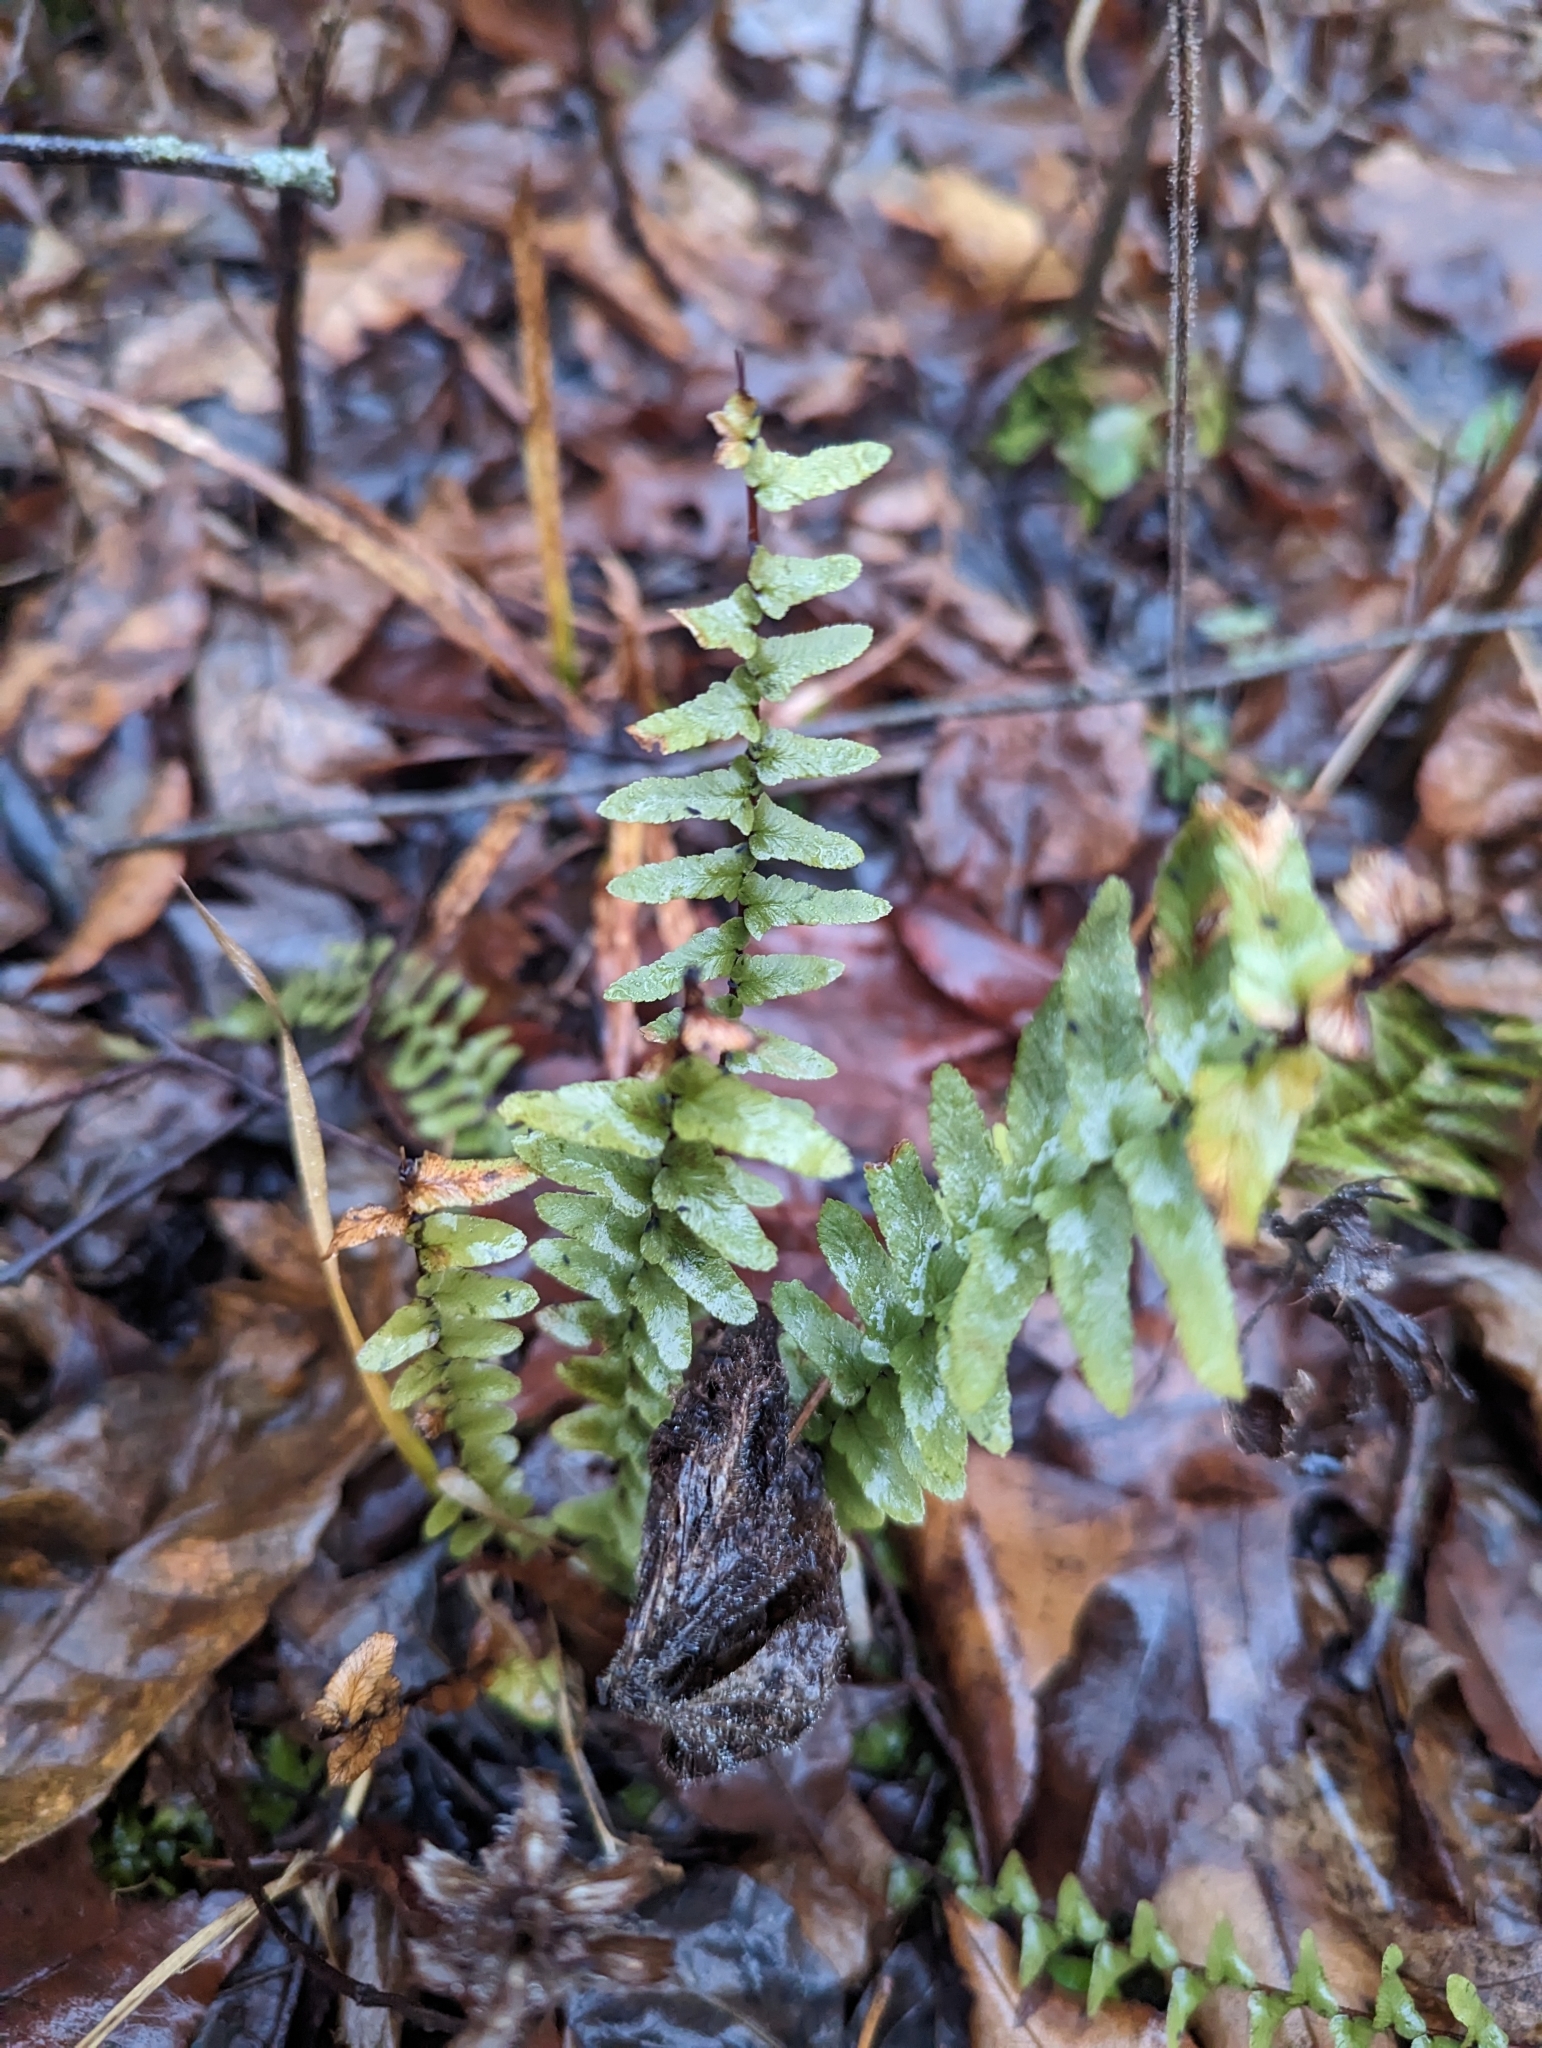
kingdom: Plantae
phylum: Tracheophyta
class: Polypodiopsida
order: Polypodiales
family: Aspleniaceae
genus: Asplenium
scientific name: Asplenium platyneuron
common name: Ebony spleenwort
